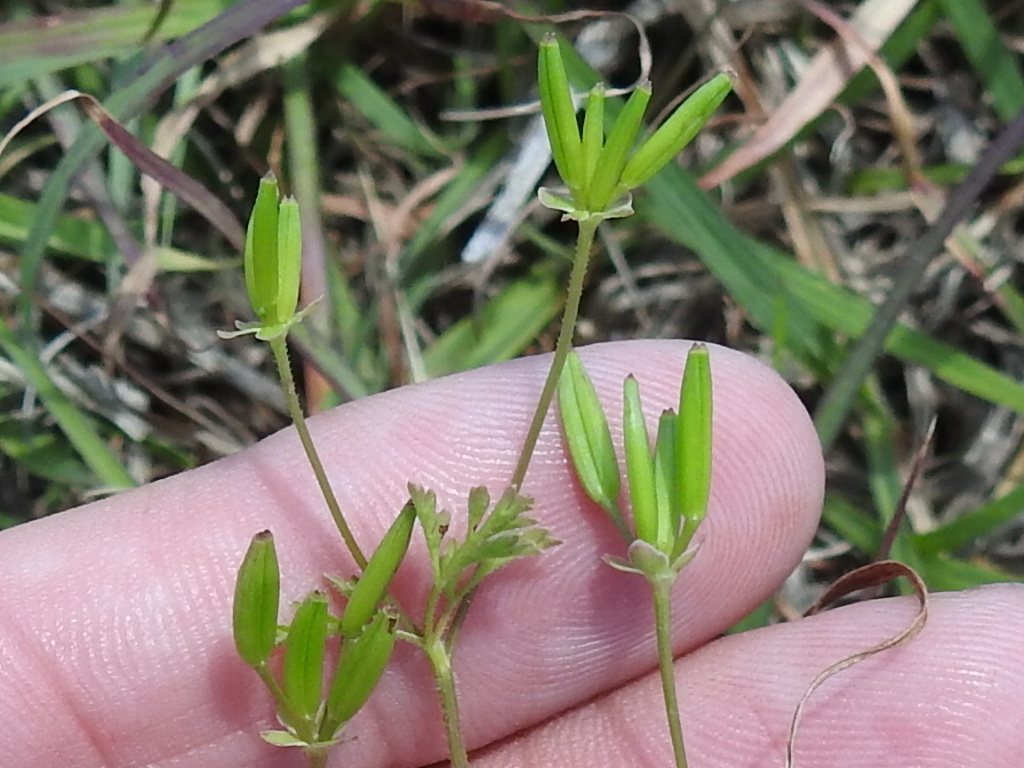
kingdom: Plantae
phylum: Tracheophyta
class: Magnoliopsida
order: Apiales
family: Apiaceae
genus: Chaerophyllum
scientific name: Chaerophyllum tainturieri
